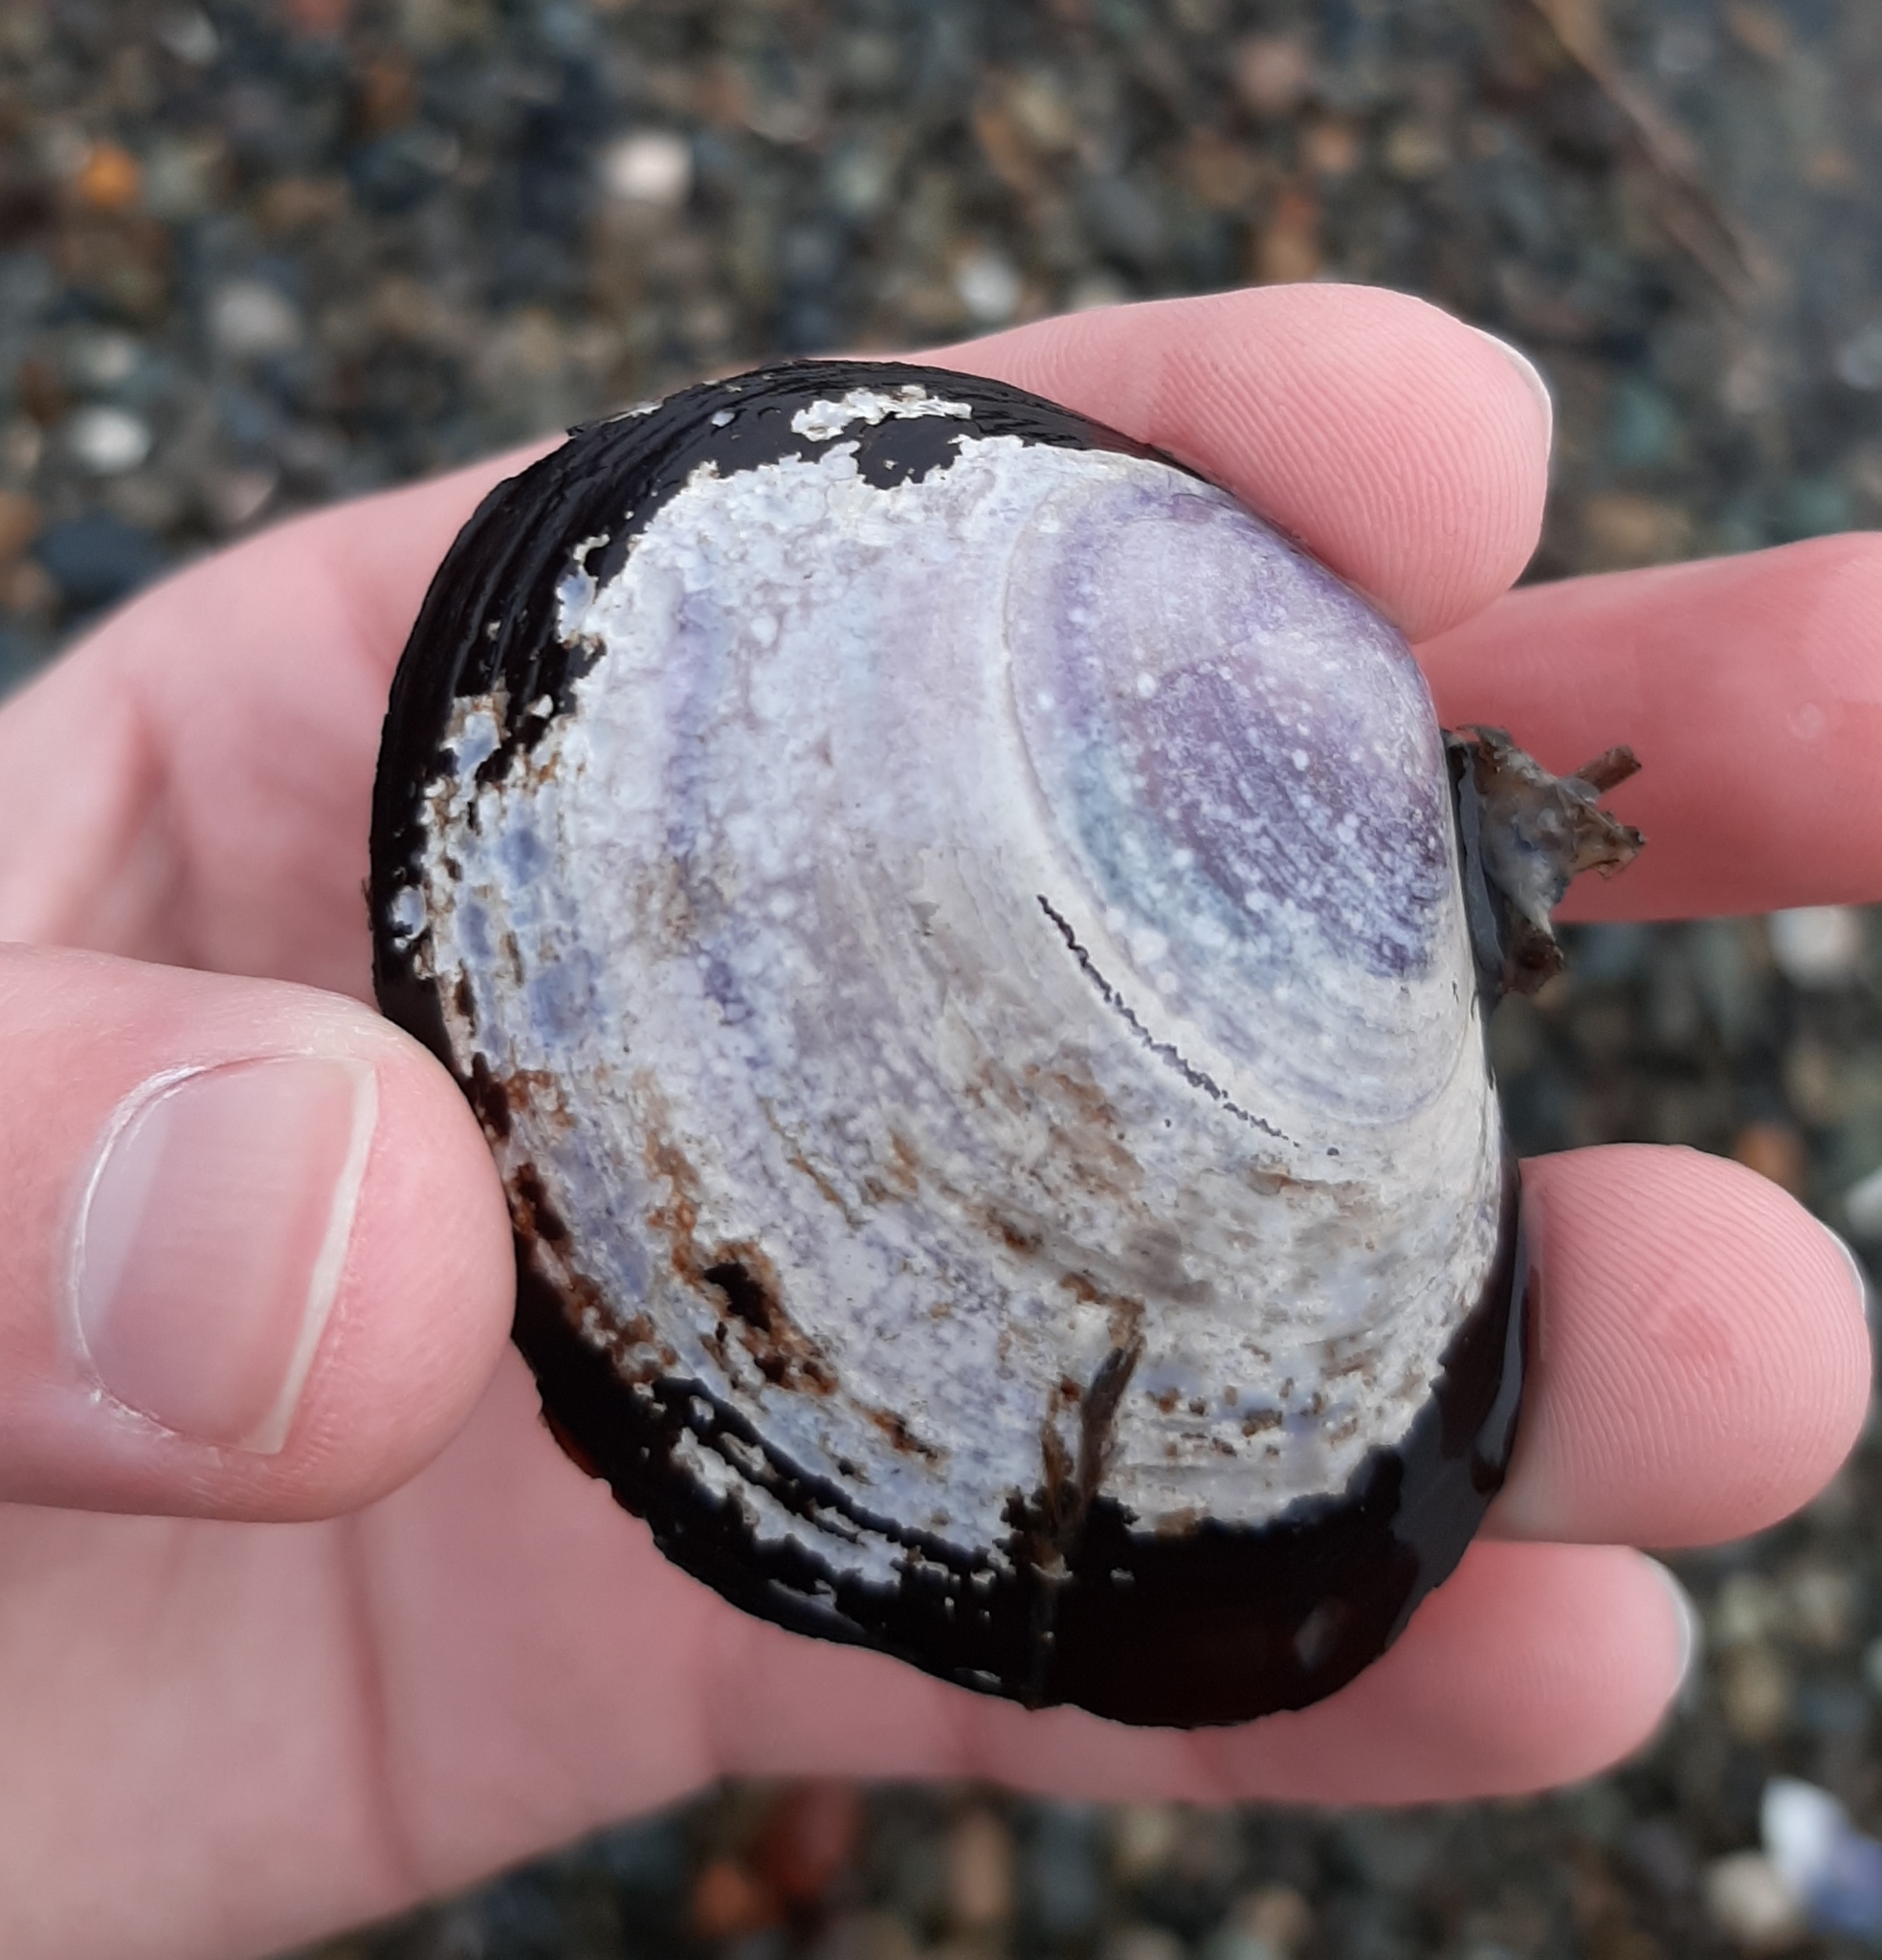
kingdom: Animalia
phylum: Mollusca
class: Bivalvia
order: Cardiida
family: Psammobiidae
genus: Nuttallia
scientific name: Nuttallia obscurata
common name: Purple mahogany-clam
